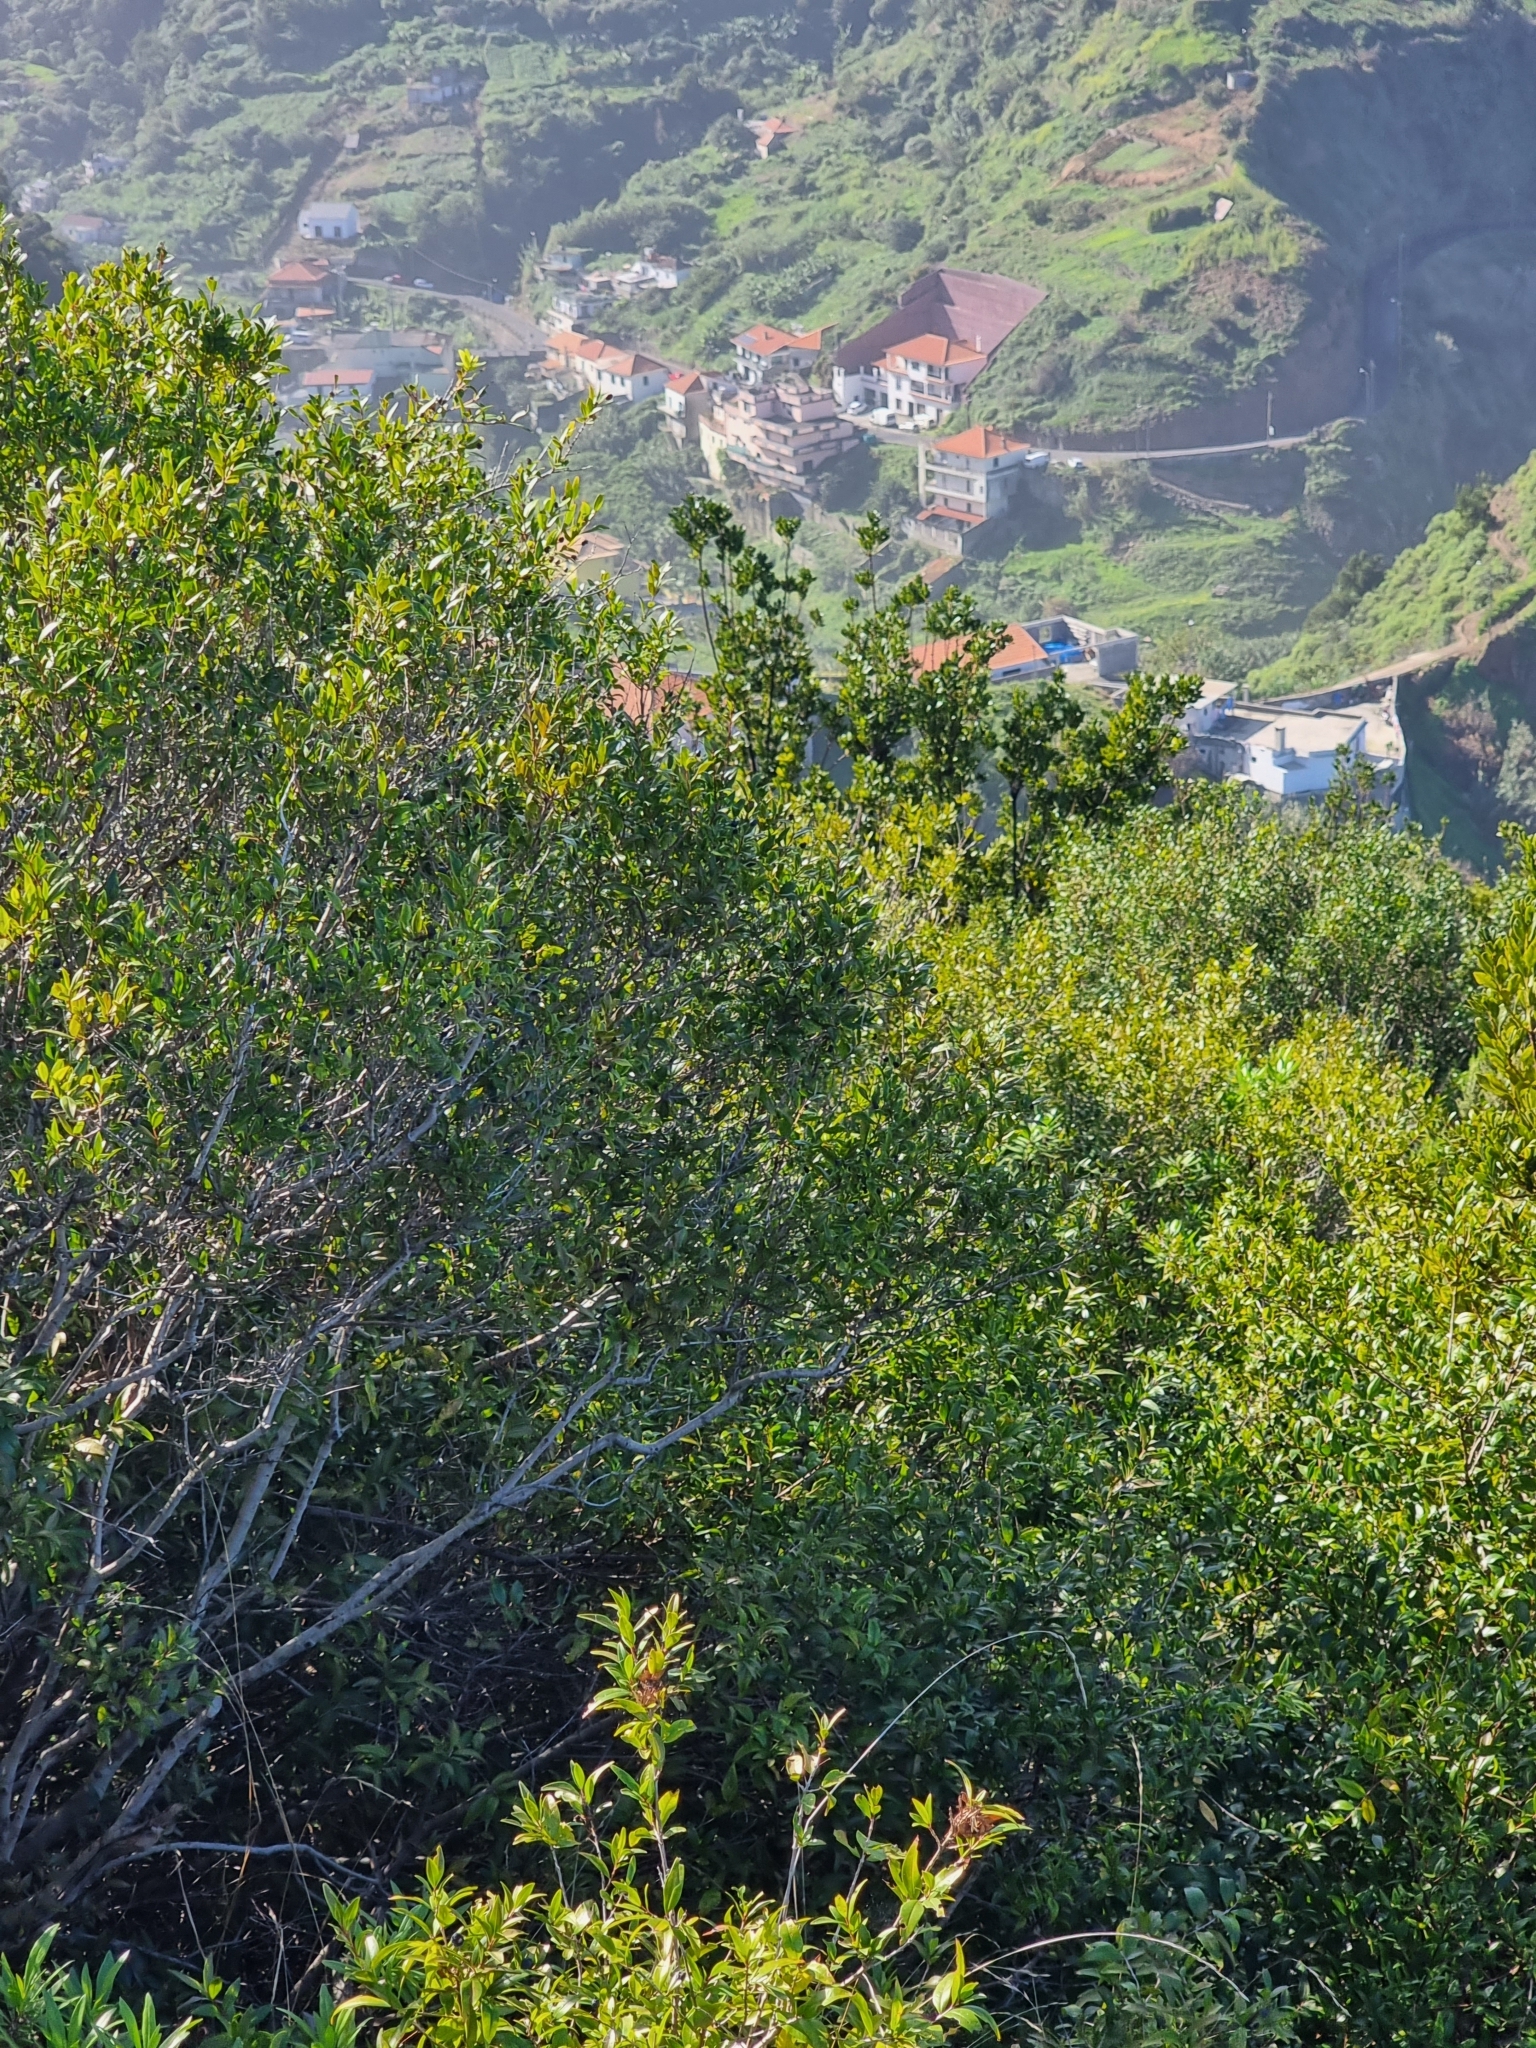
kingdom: Plantae
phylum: Tracheophyta
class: Magnoliopsida
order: Myrtales
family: Myrtaceae
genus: Myrtus
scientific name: Myrtus communis
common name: Myrtle
